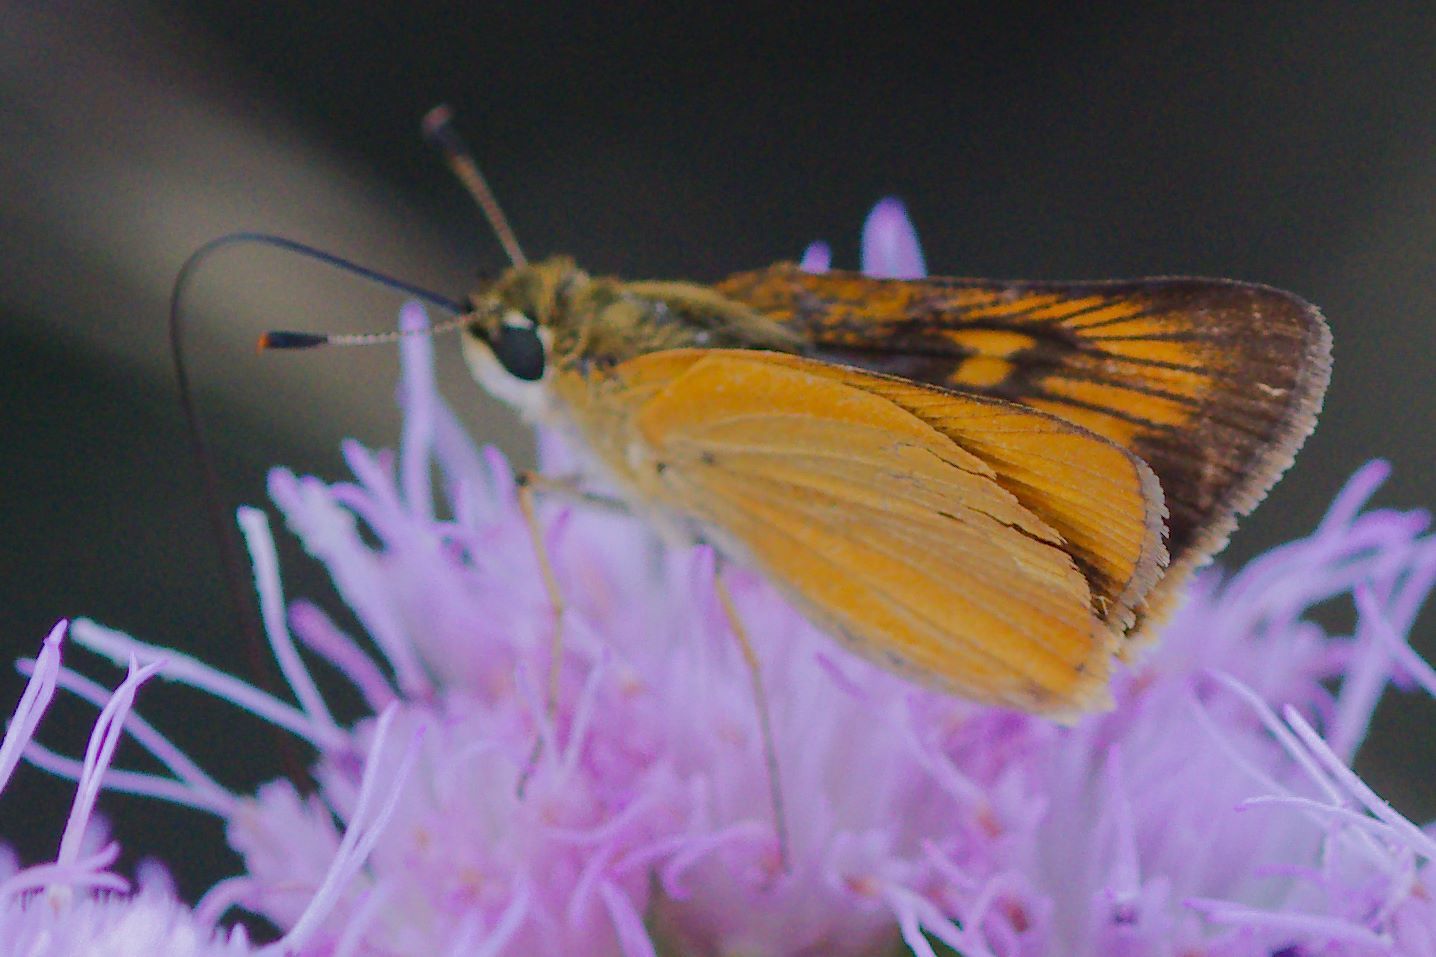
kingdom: Animalia
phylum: Arthropoda
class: Insecta
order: Lepidoptera
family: Hesperiidae
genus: Atrytone
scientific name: Atrytone delaware
